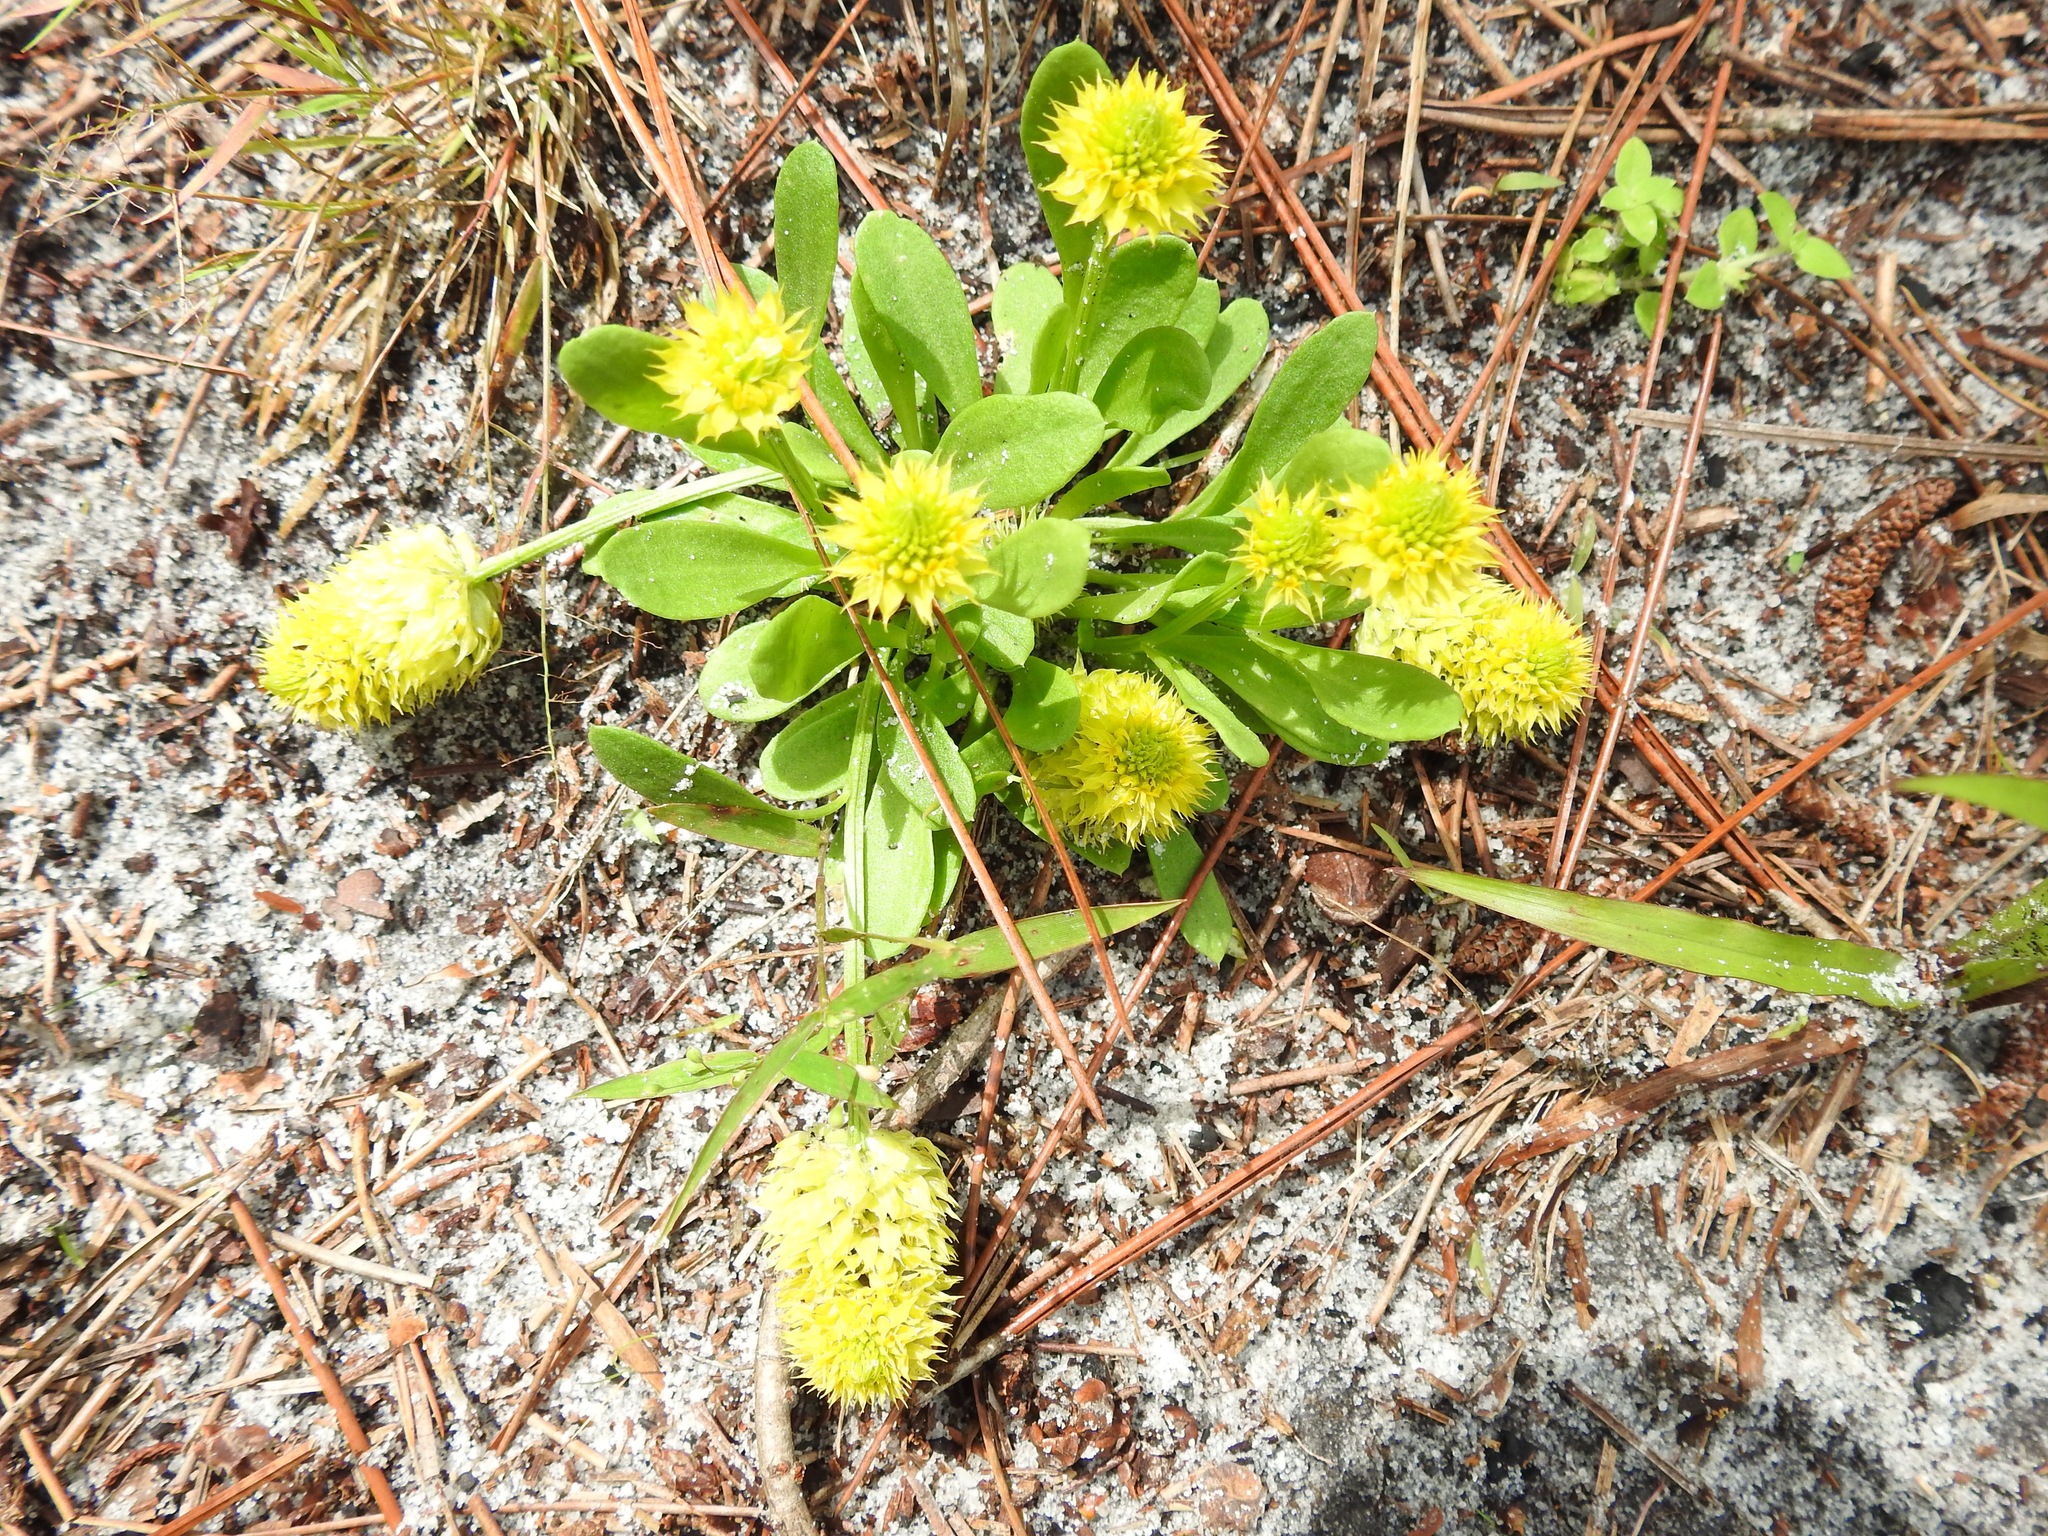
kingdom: Plantae
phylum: Tracheophyta
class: Magnoliopsida
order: Fabales
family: Polygalaceae
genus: Polygala
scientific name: Polygala nana
